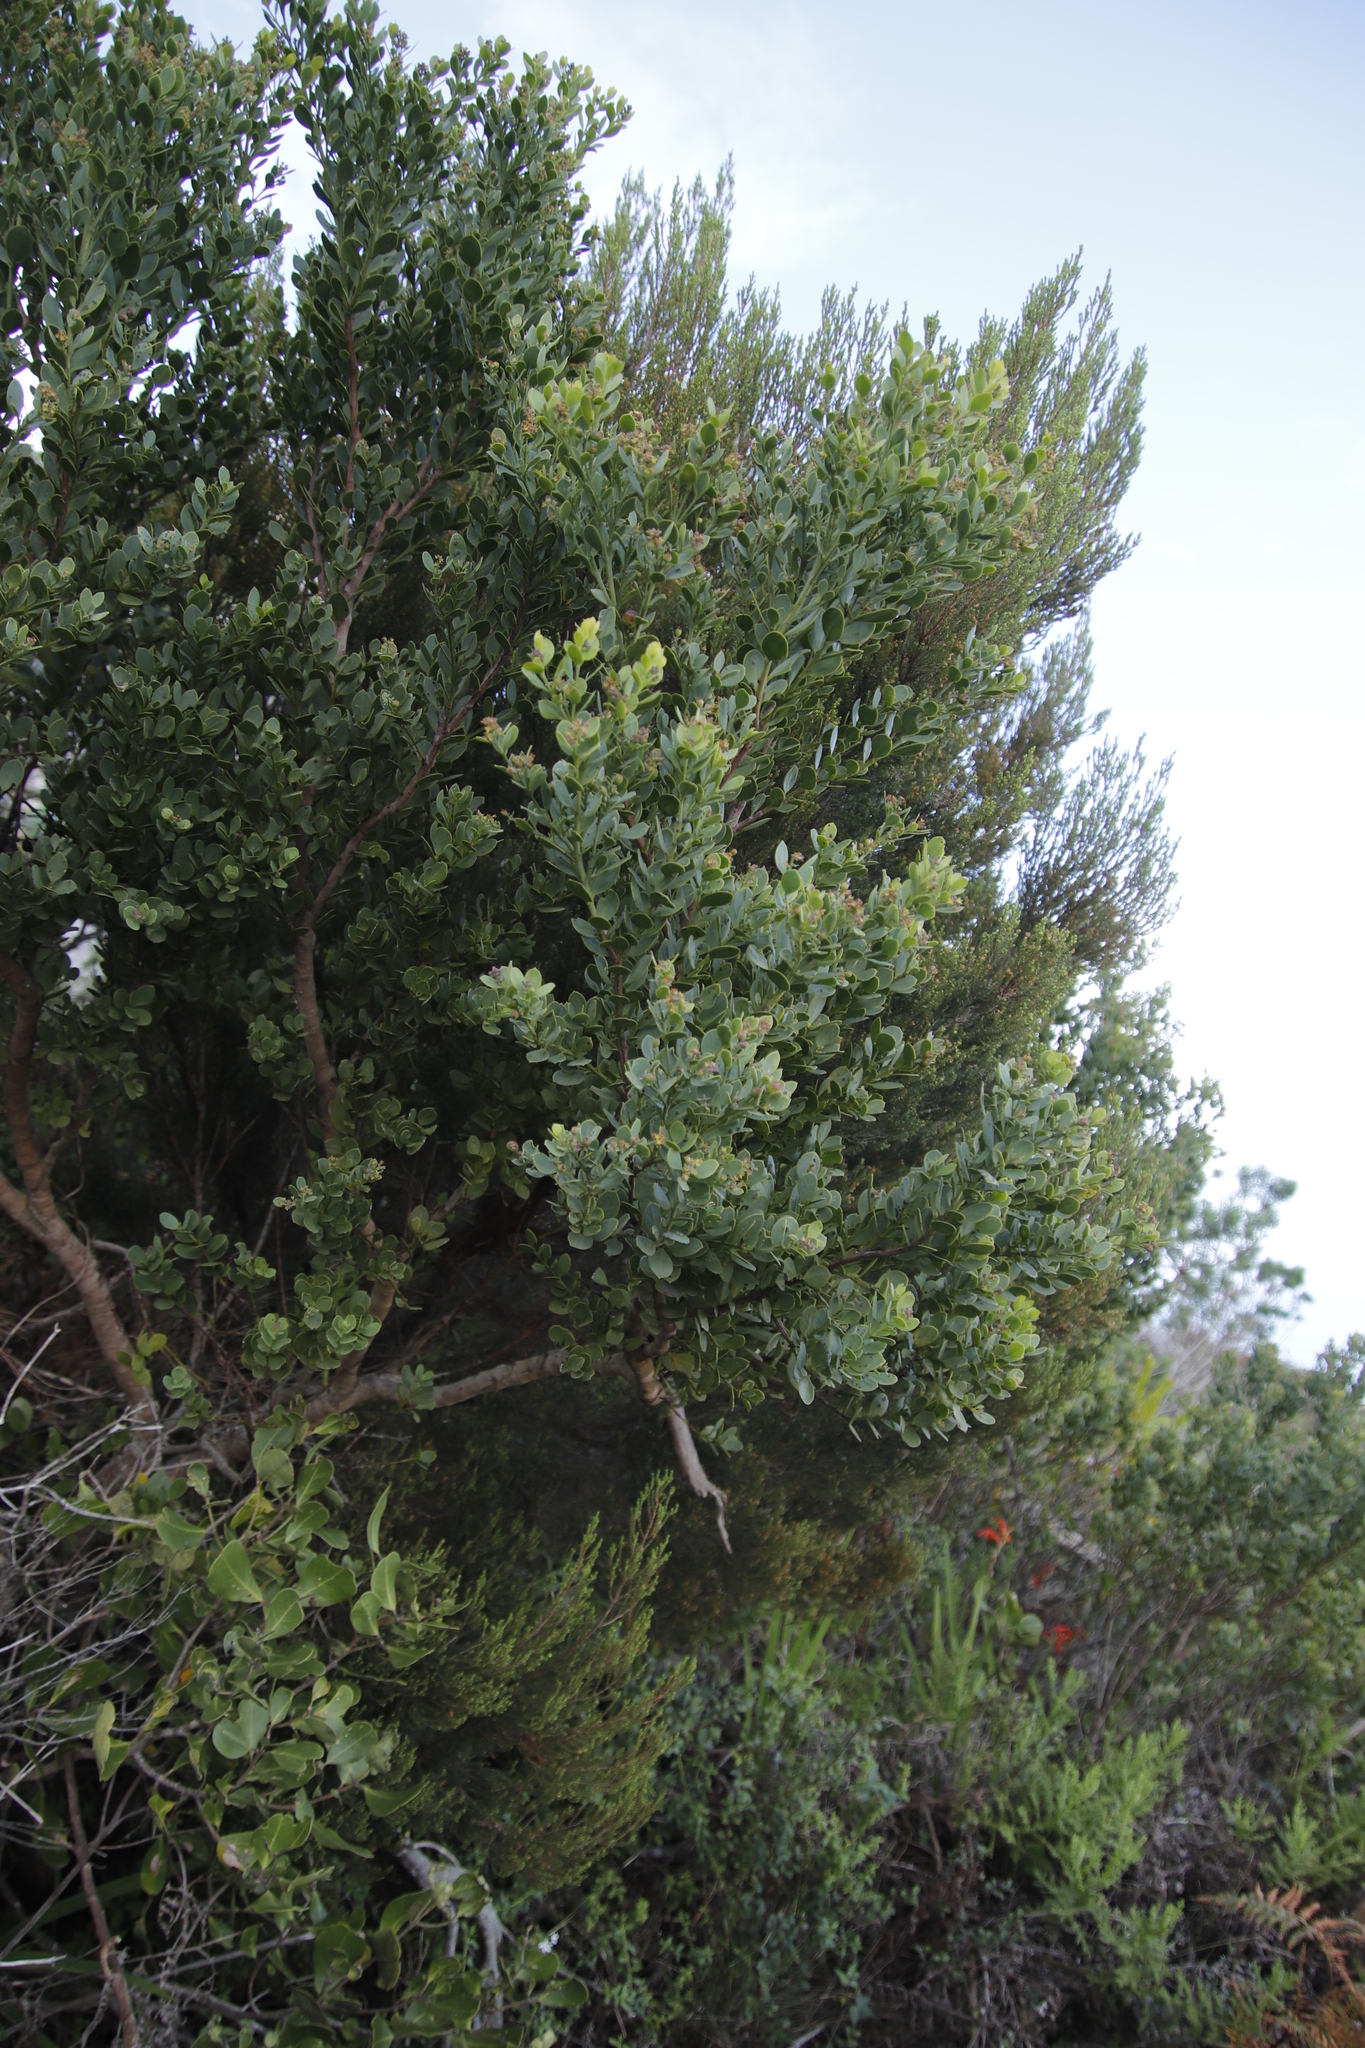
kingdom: Plantae
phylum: Tracheophyta
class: Magnoliopsida
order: Santalales
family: Santalaceae
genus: Osyris
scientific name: Osyris compressa
